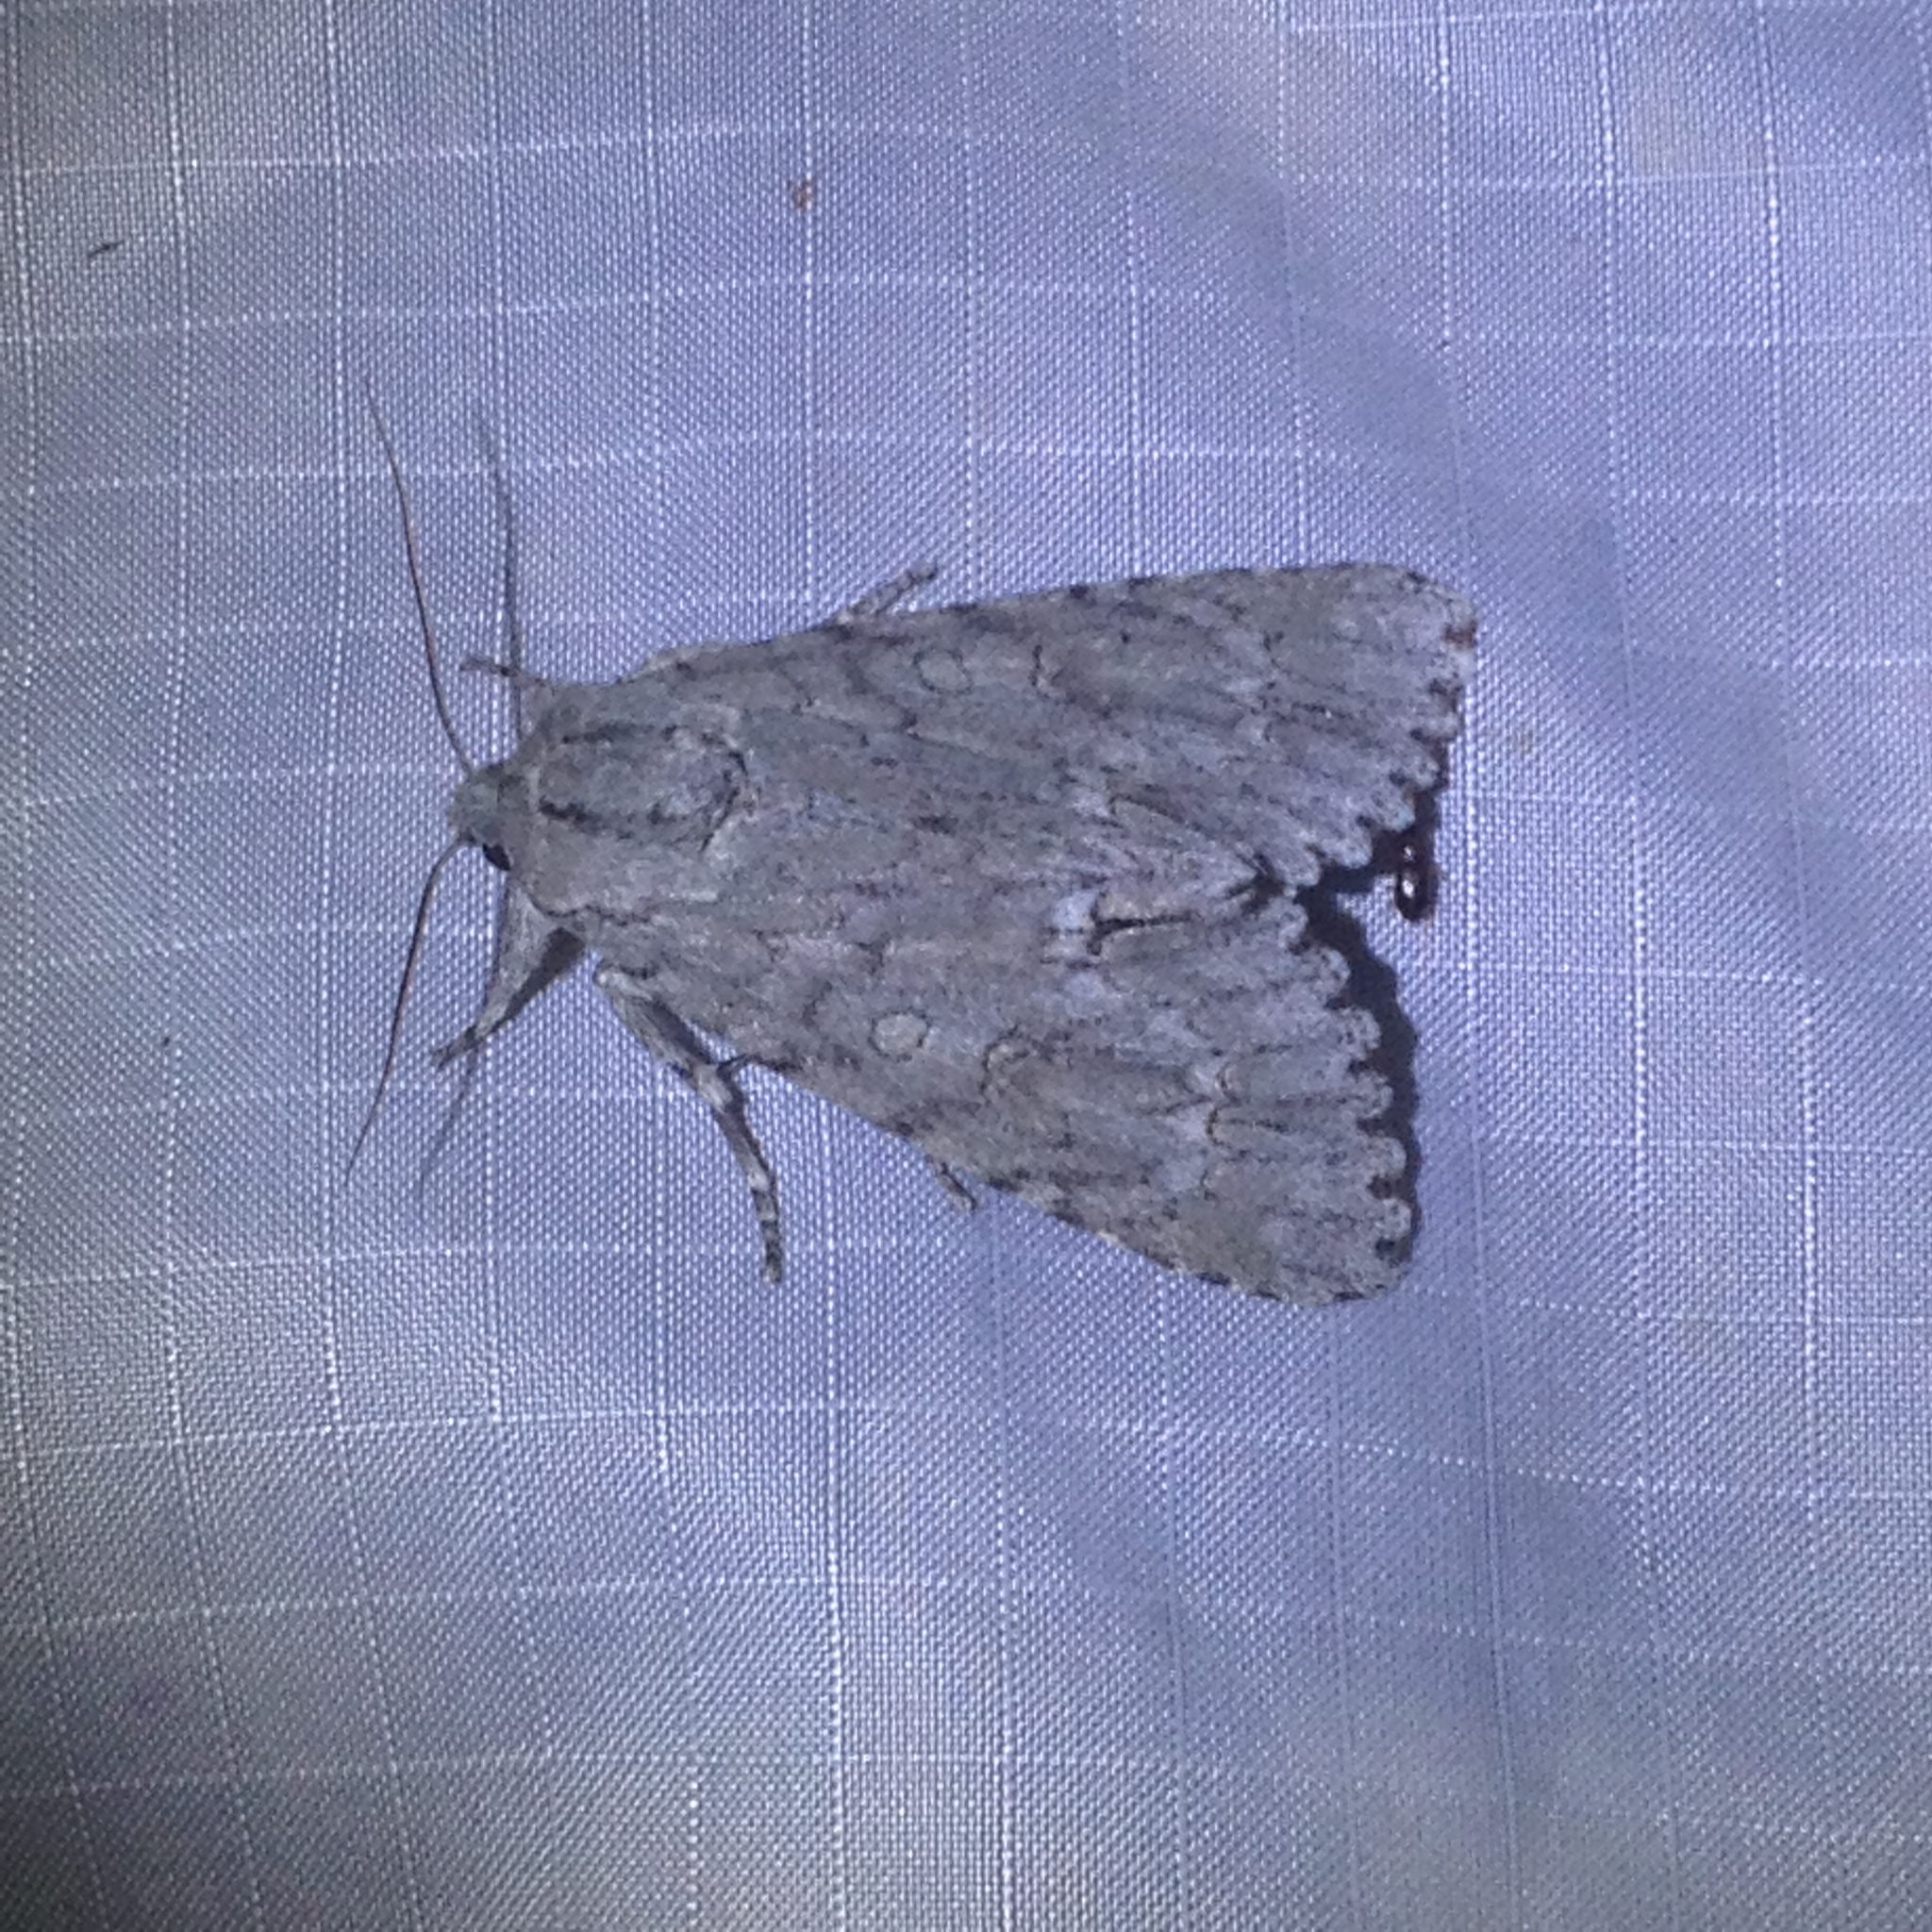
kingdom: Animalia
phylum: Arthropoda
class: Insecta
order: Lepidoptera
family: Noctuidae
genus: Acronicta
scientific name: Acronicta americana
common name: American dagger
